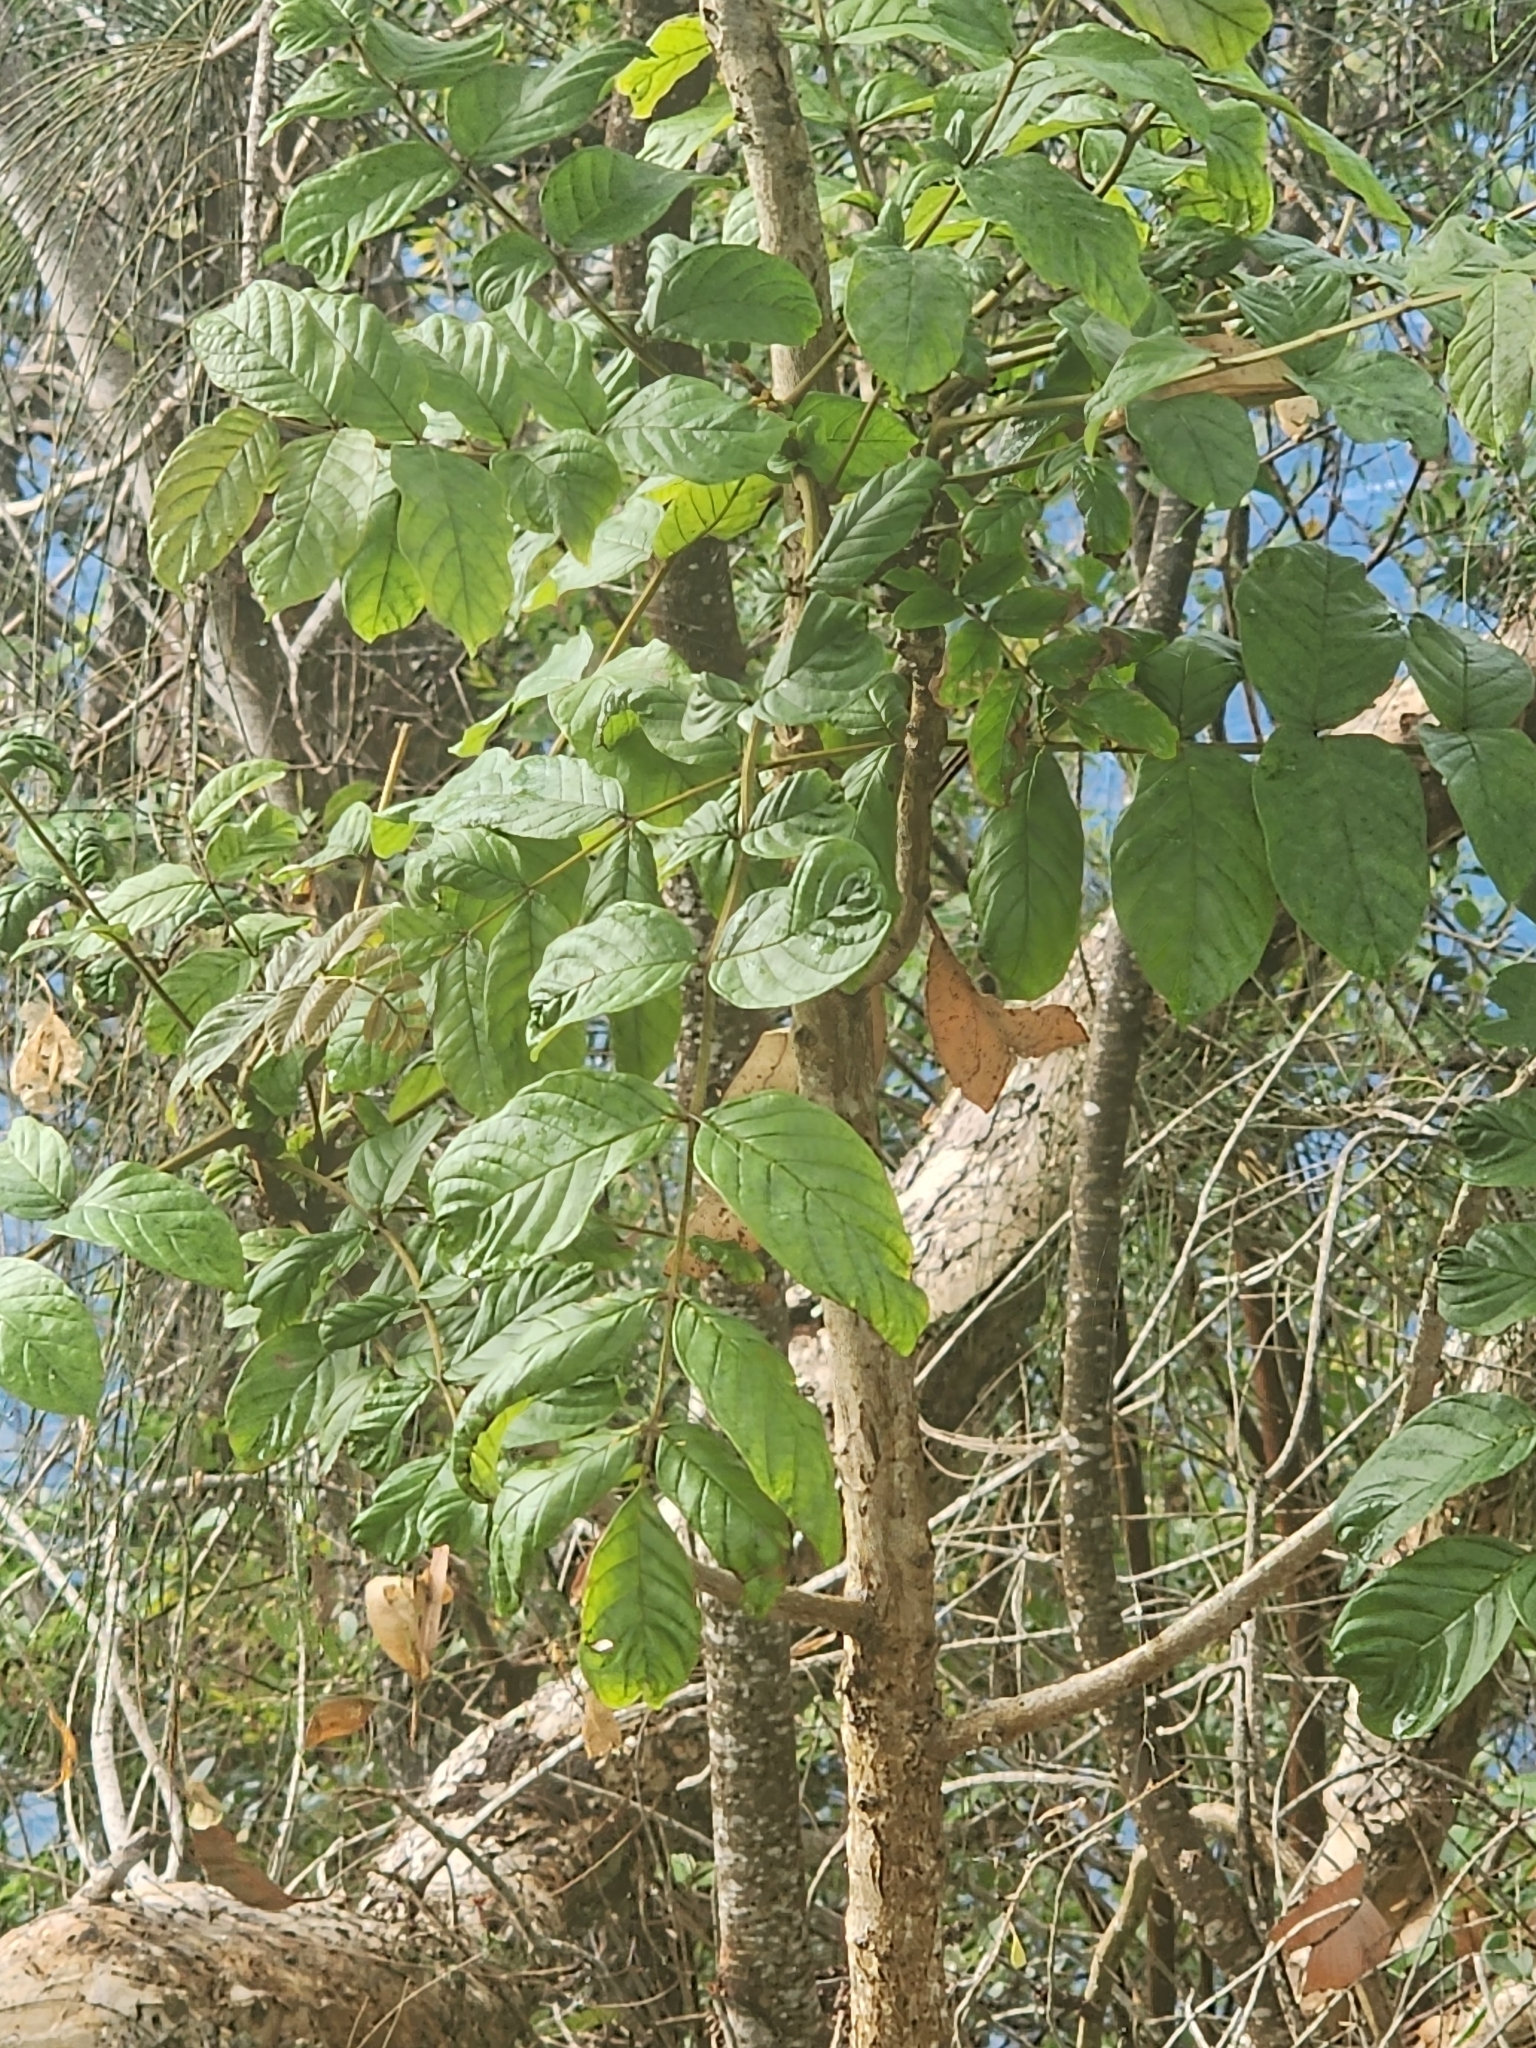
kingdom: Plantae
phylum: Tracheophyta
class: Magnoliopsida
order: Lamiales
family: Bignoniaceae
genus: Spathodea
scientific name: Spathodea campanulata
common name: African tuliptree
